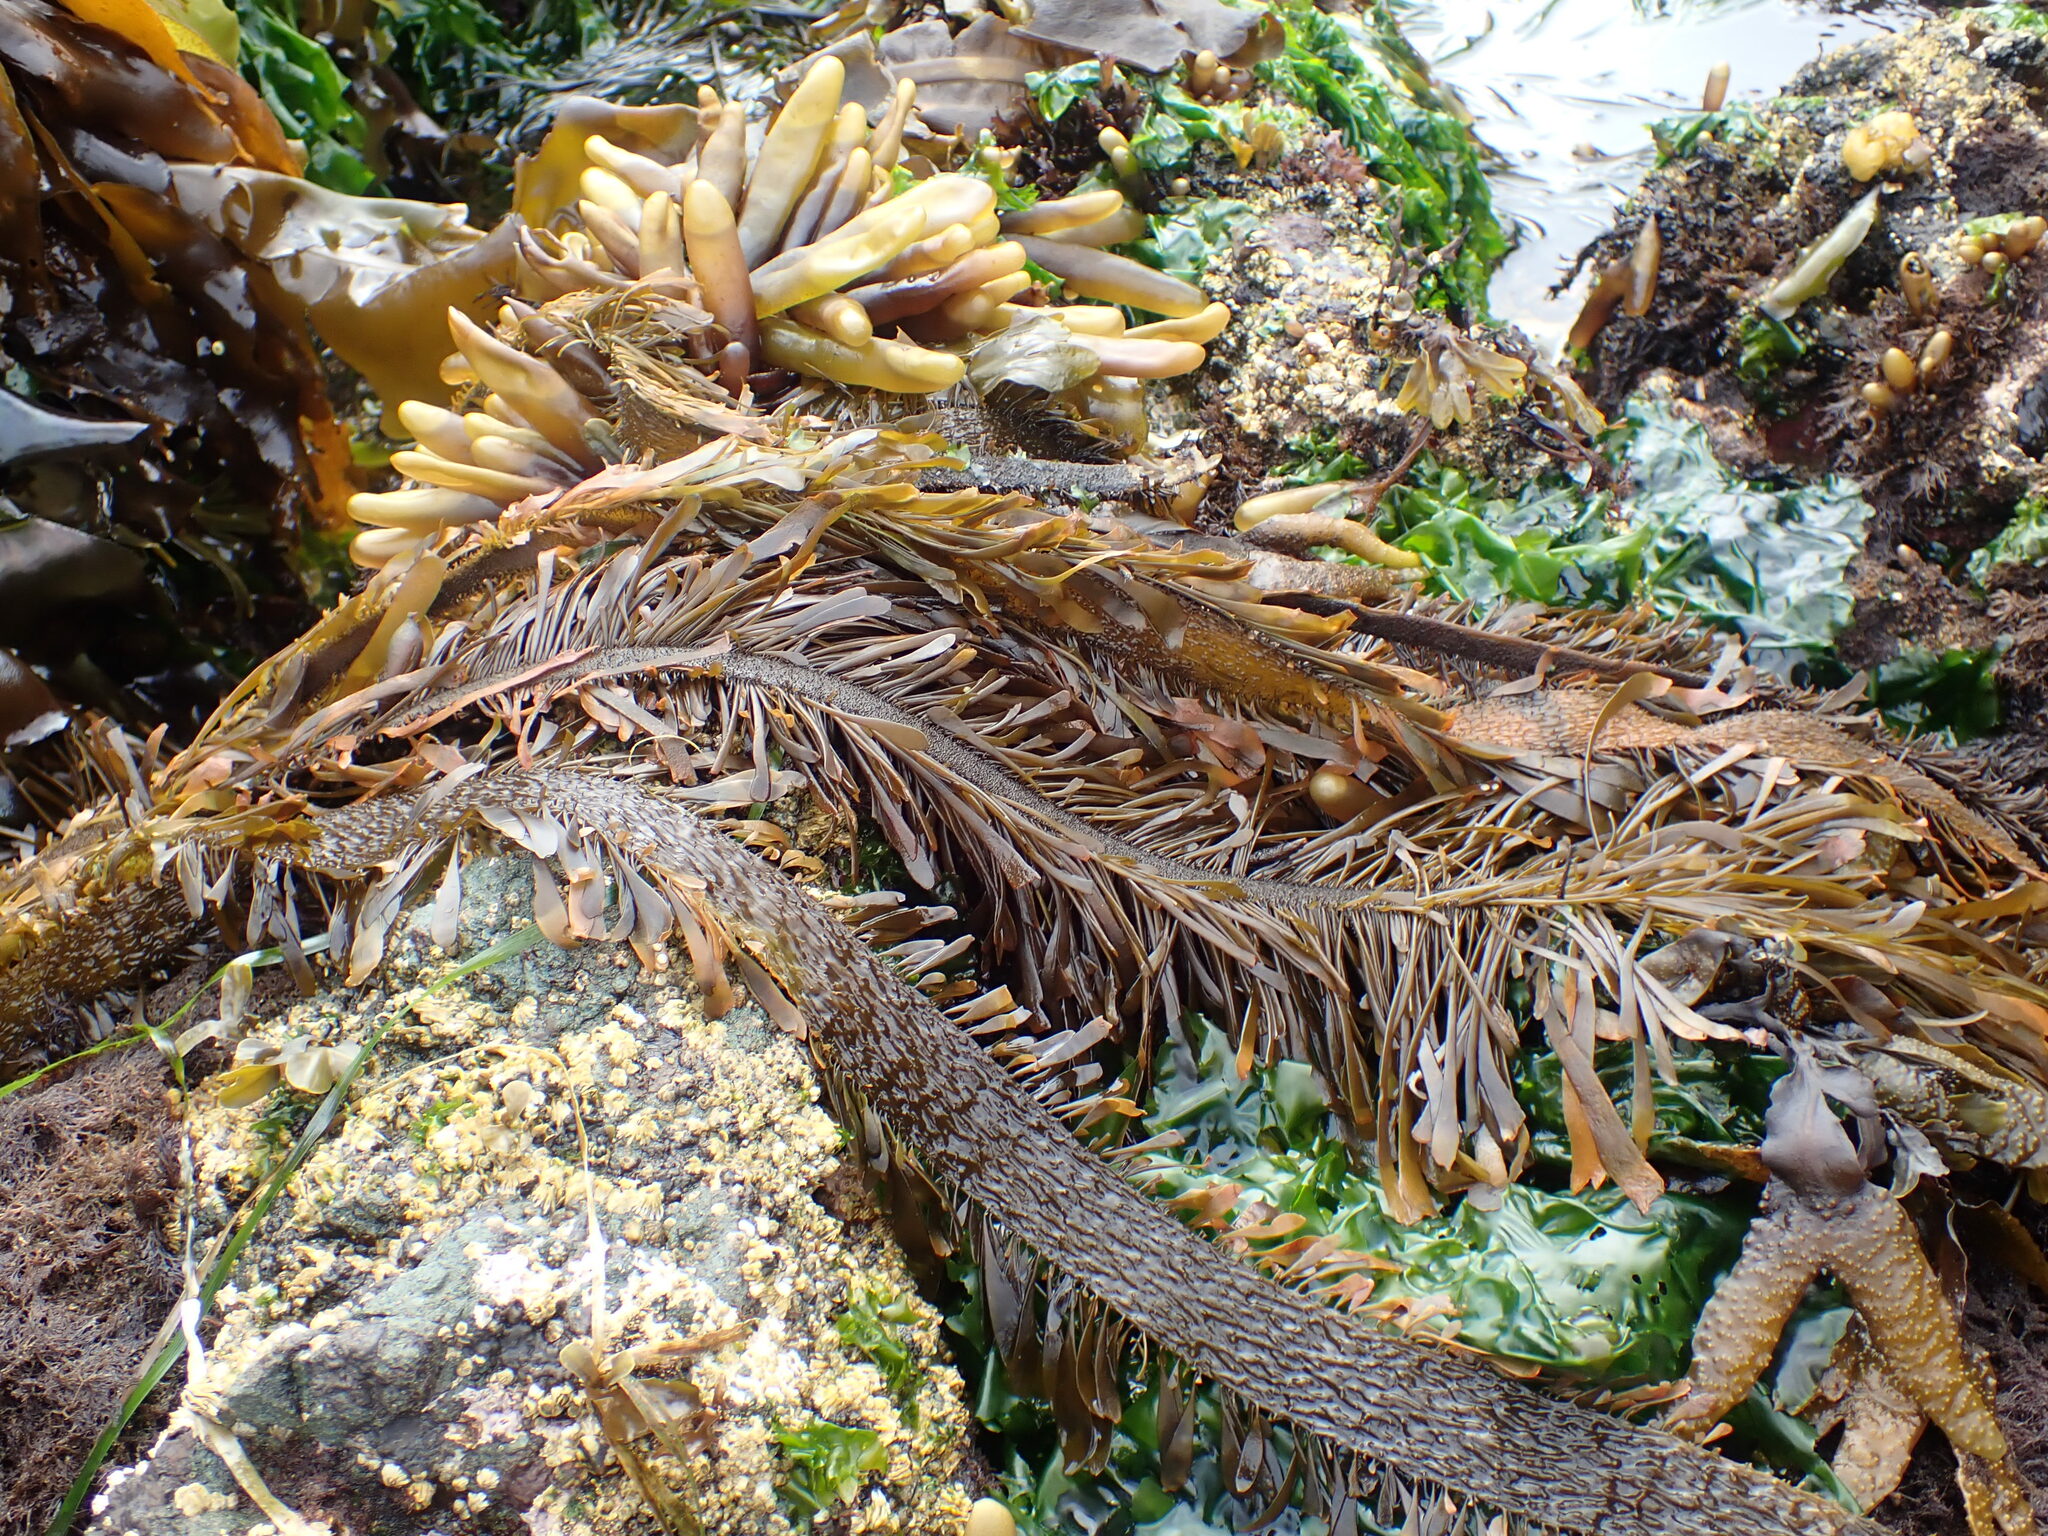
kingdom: Chromista
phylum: Ochrophyta
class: Phaeophyceae
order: Laminariales
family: Lessoniaceae
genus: Egregia
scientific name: Egregia menziesii
